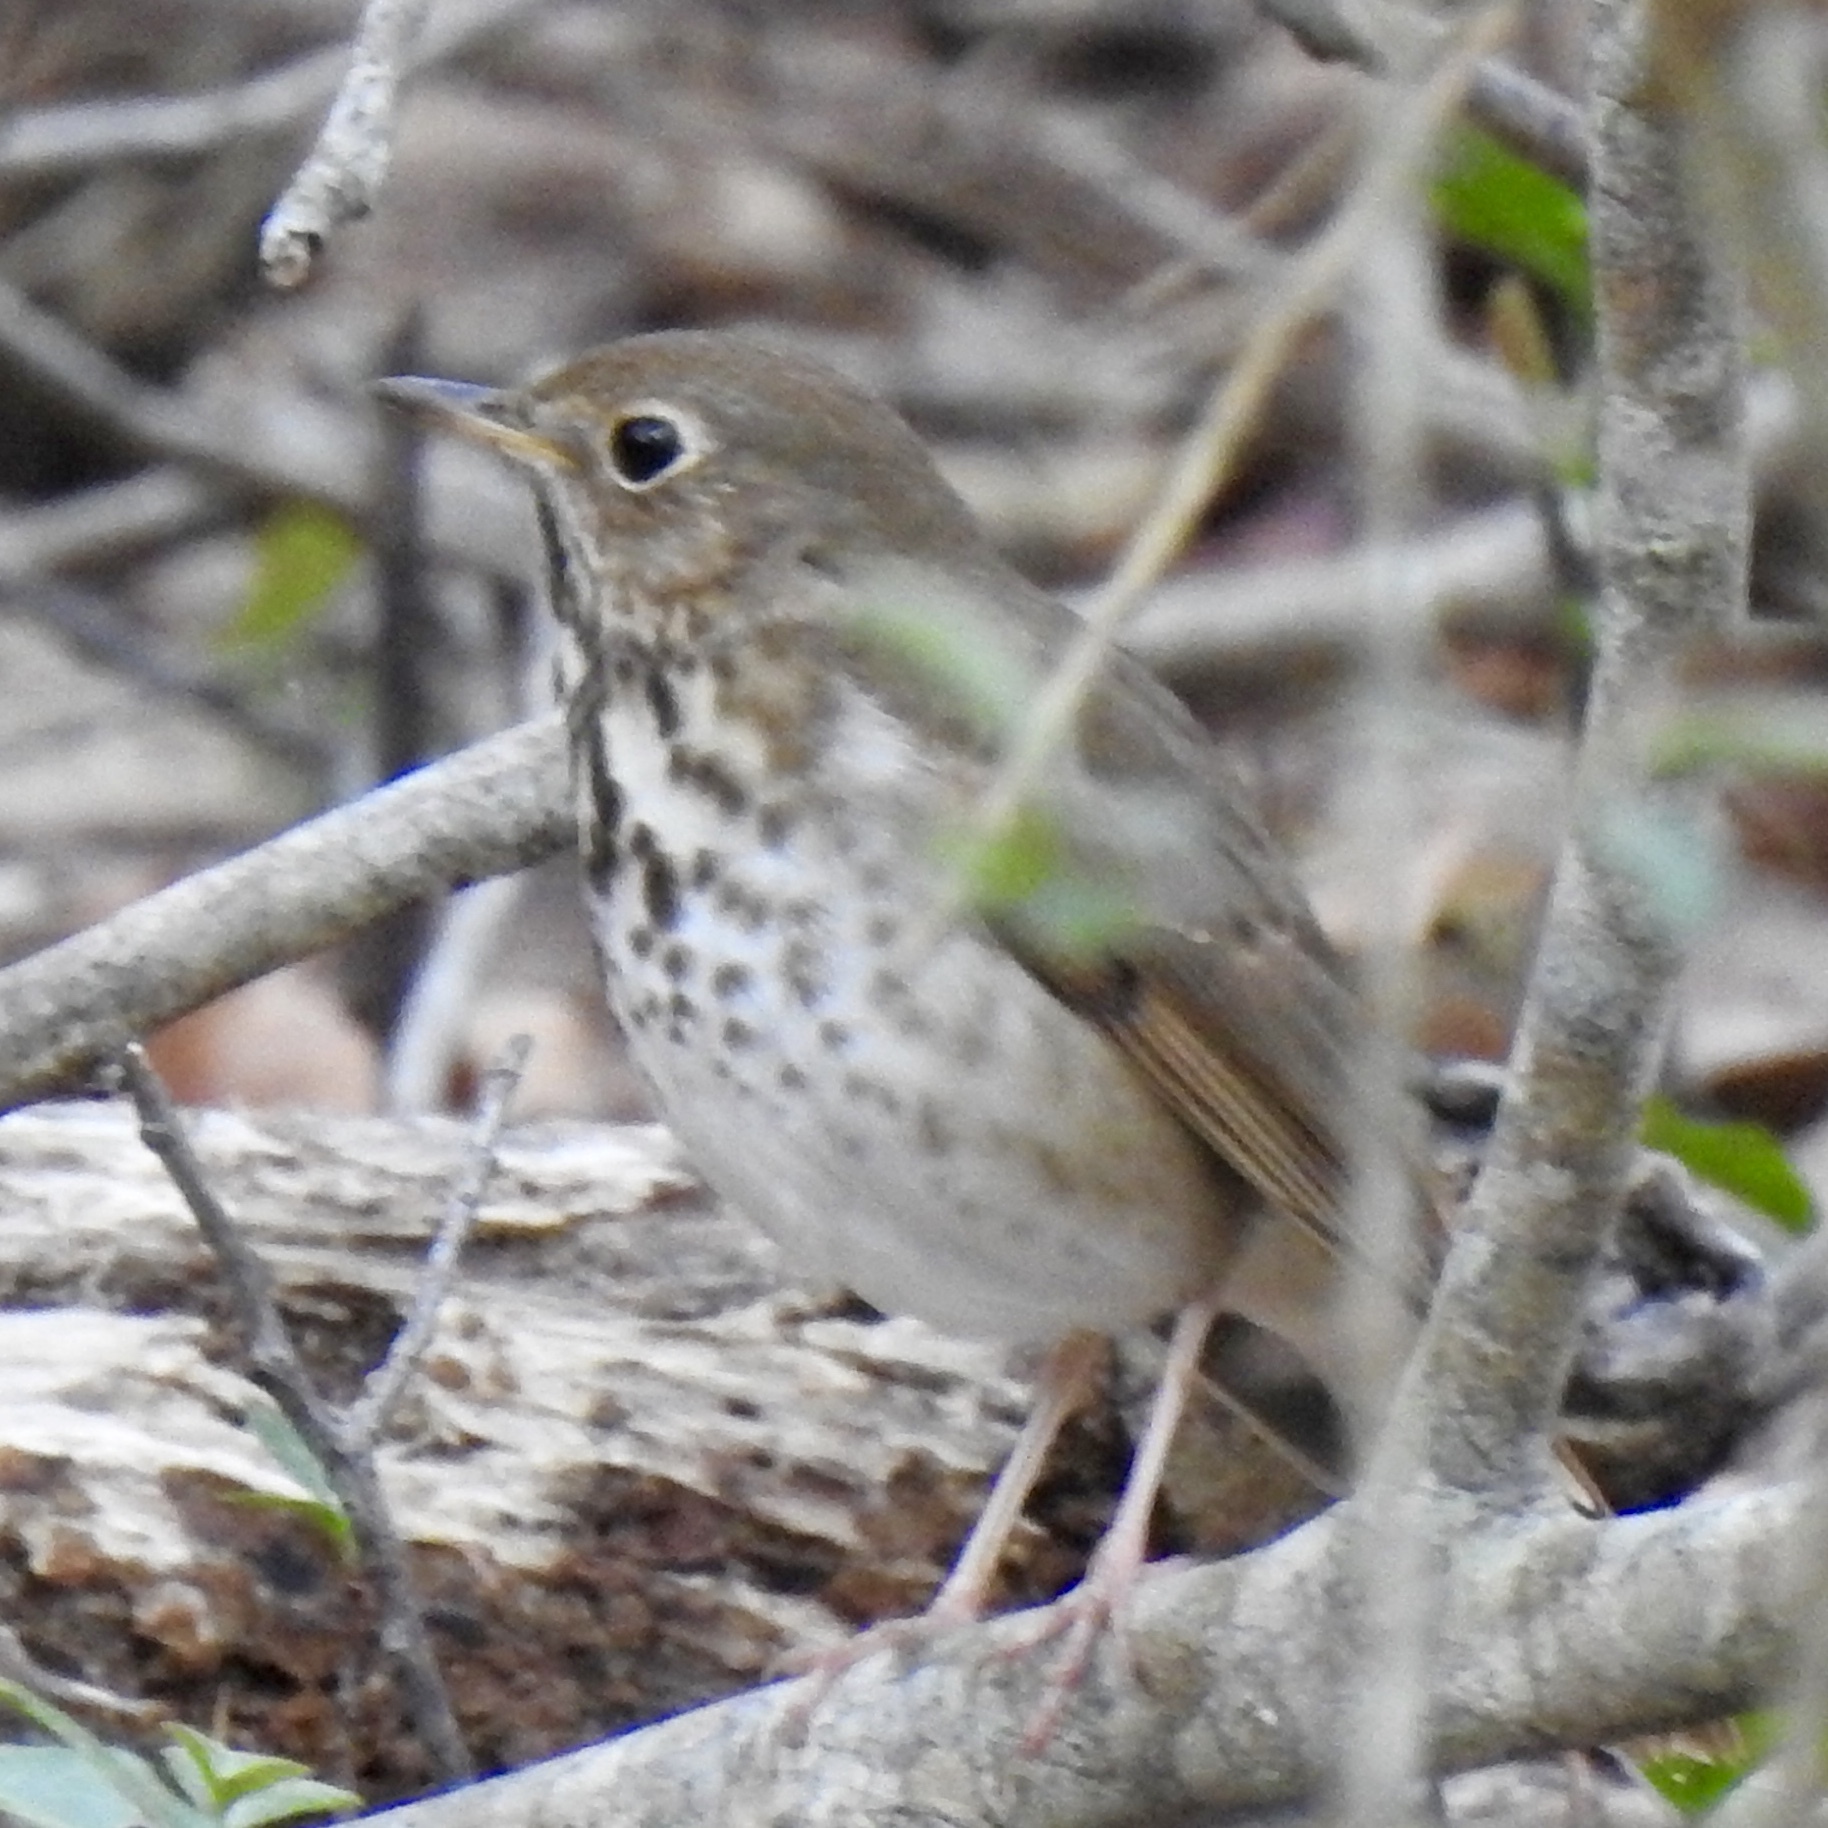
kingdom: Animalia
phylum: Chordata
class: Aves
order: Passeriformes
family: Turdidae
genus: Catharus
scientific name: Catharus guttatus
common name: Hermit thrush
